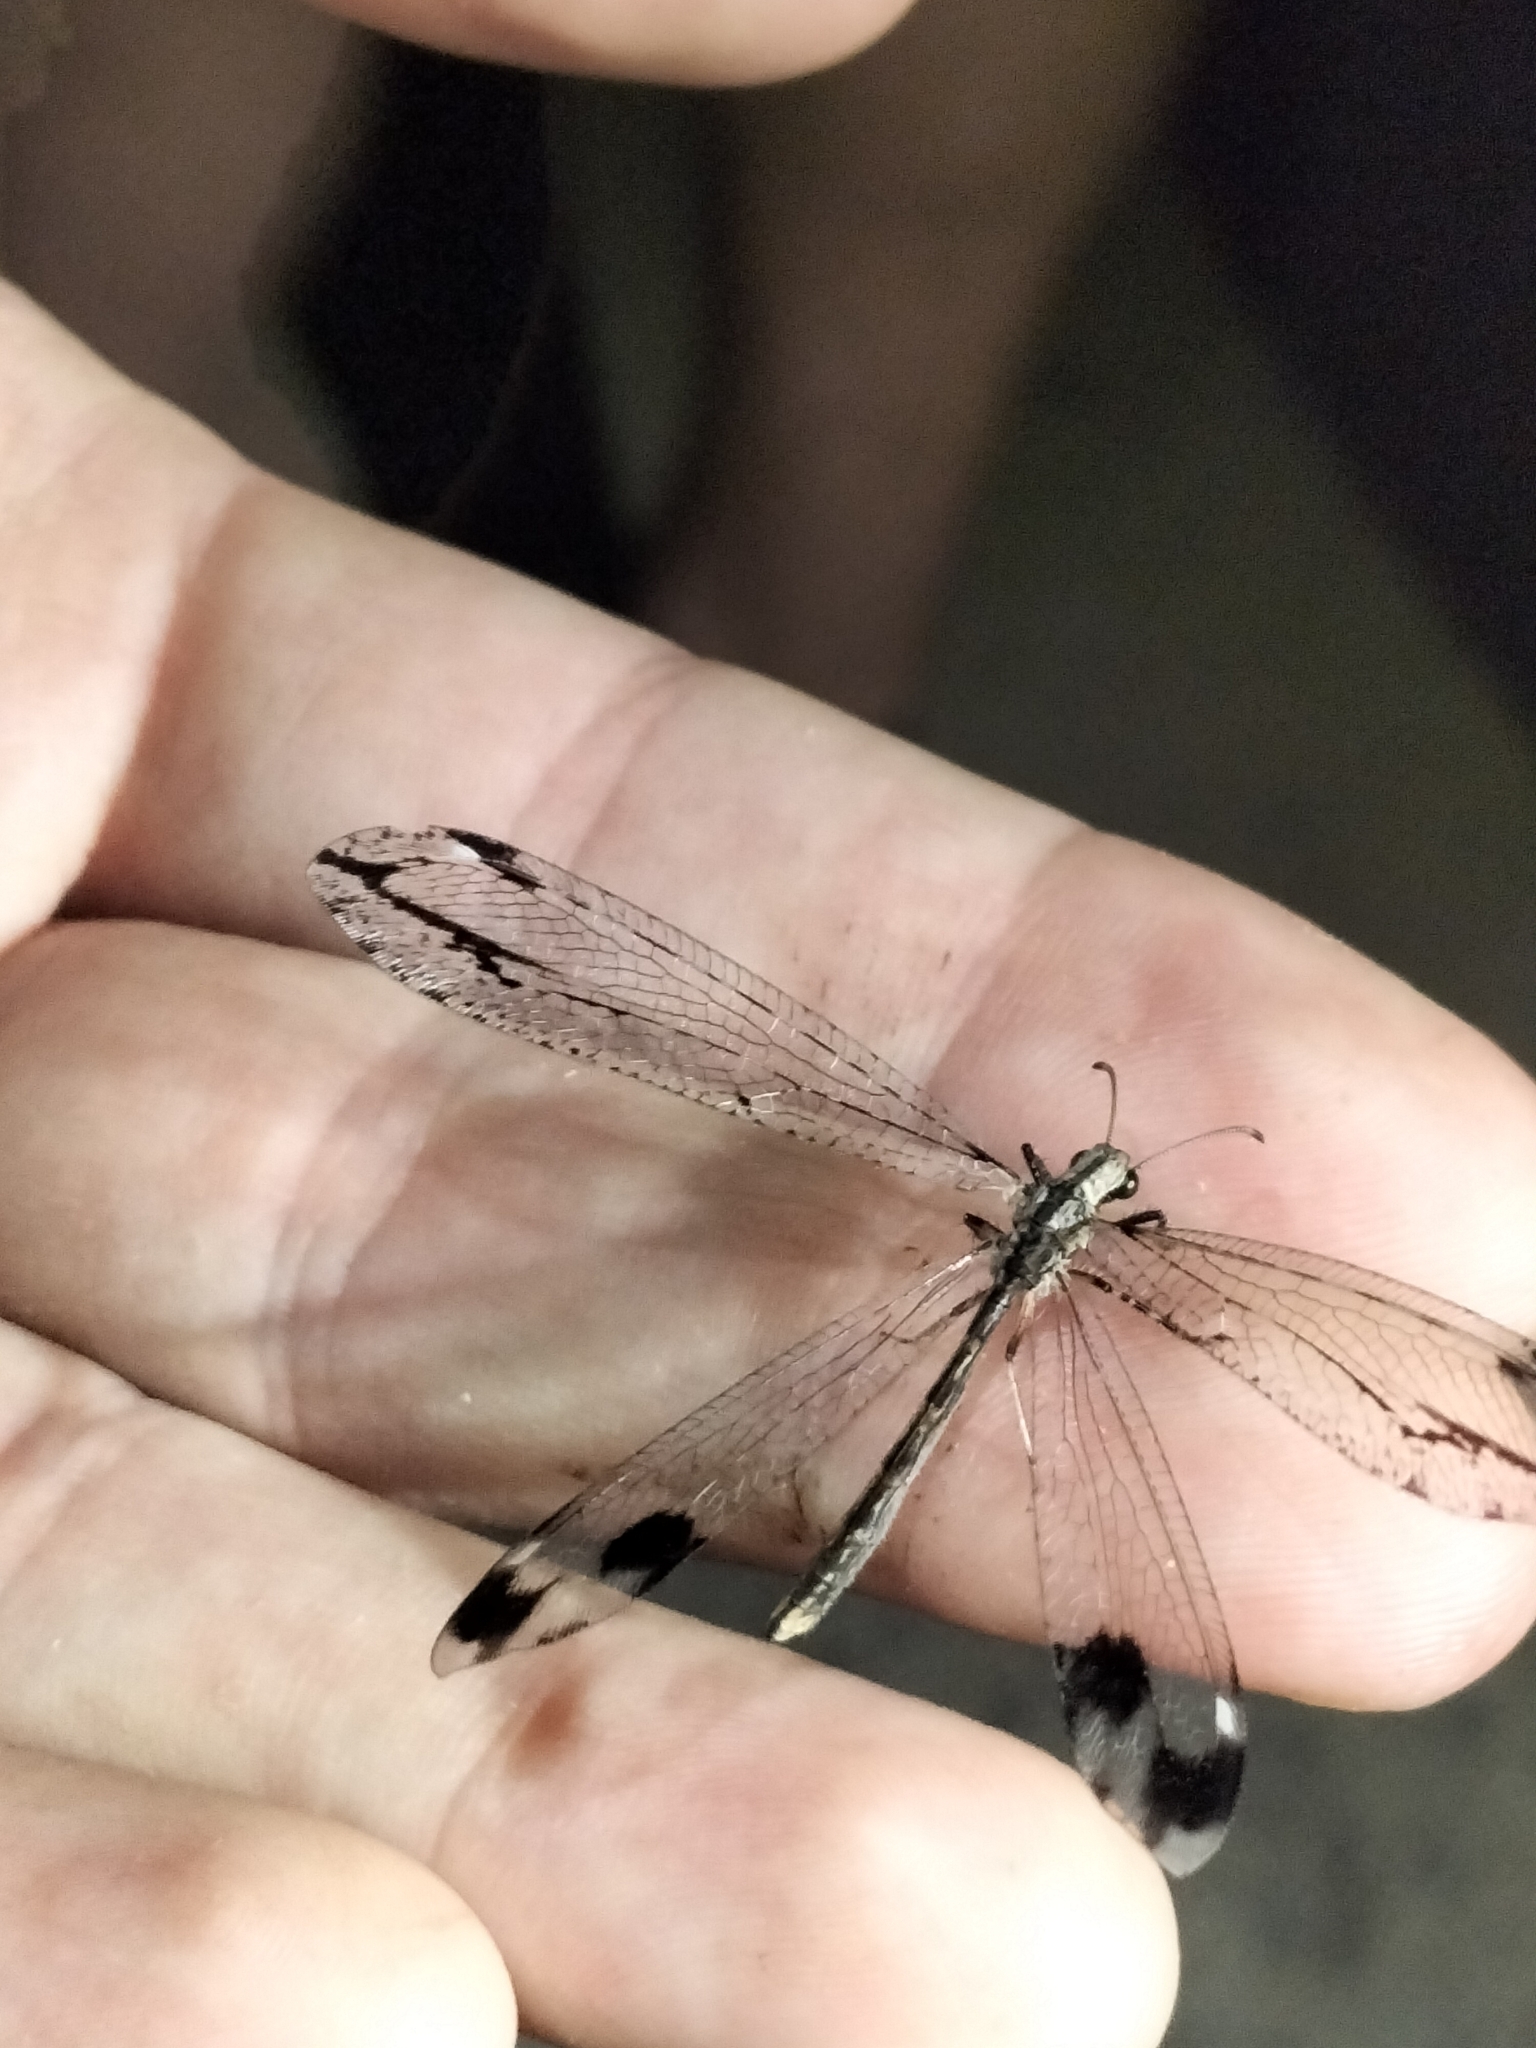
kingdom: Animalia
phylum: Arthropoda
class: Insecta
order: Neuroptera
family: Myrmeleontidae
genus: Glenoleon
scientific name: Glenoleon pulchellus
